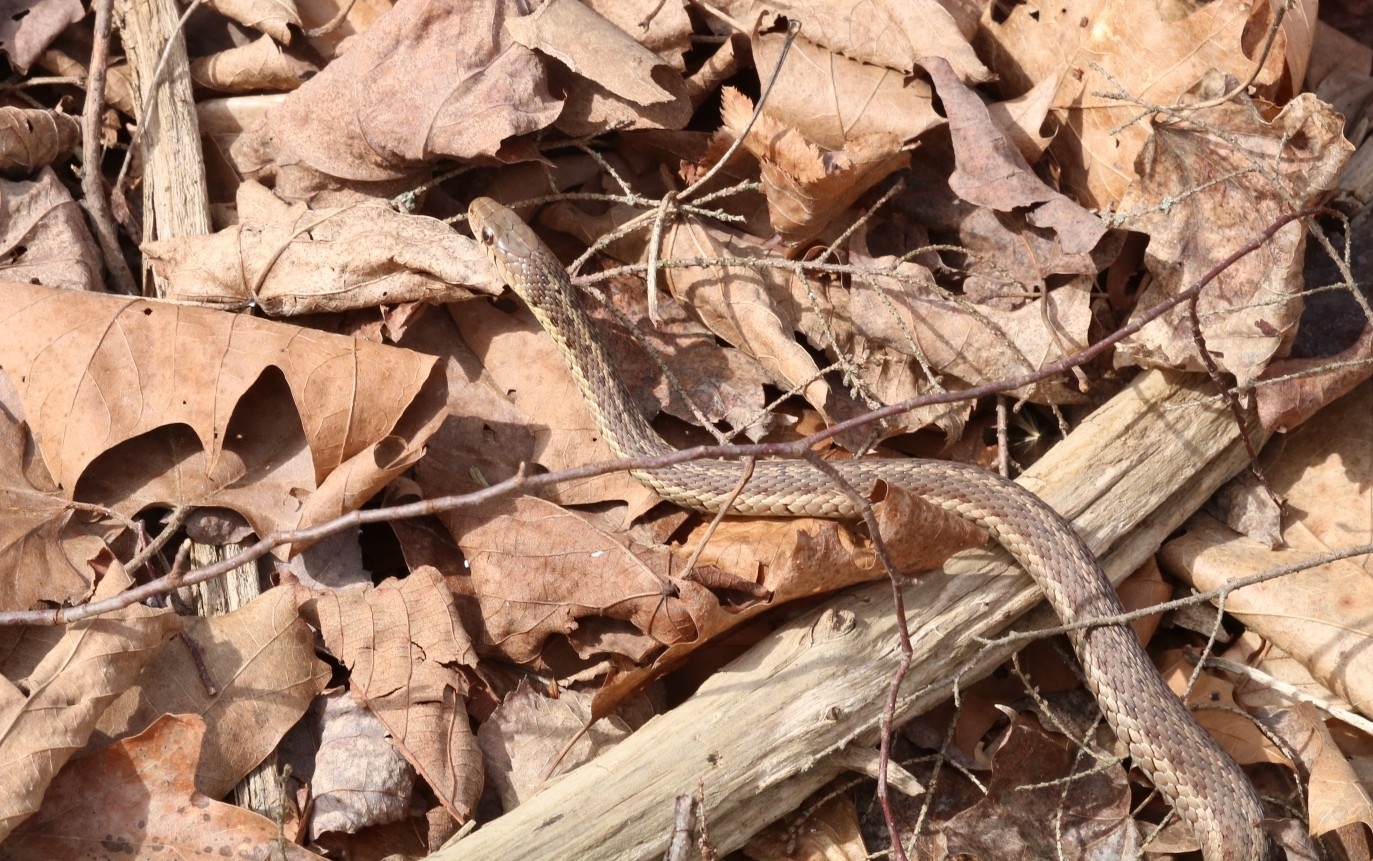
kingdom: Animalia
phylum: Chordata
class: Squamata
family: Colubridae
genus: Thamnophis
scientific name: Thamnophis sirtalis
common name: Common garter snake
